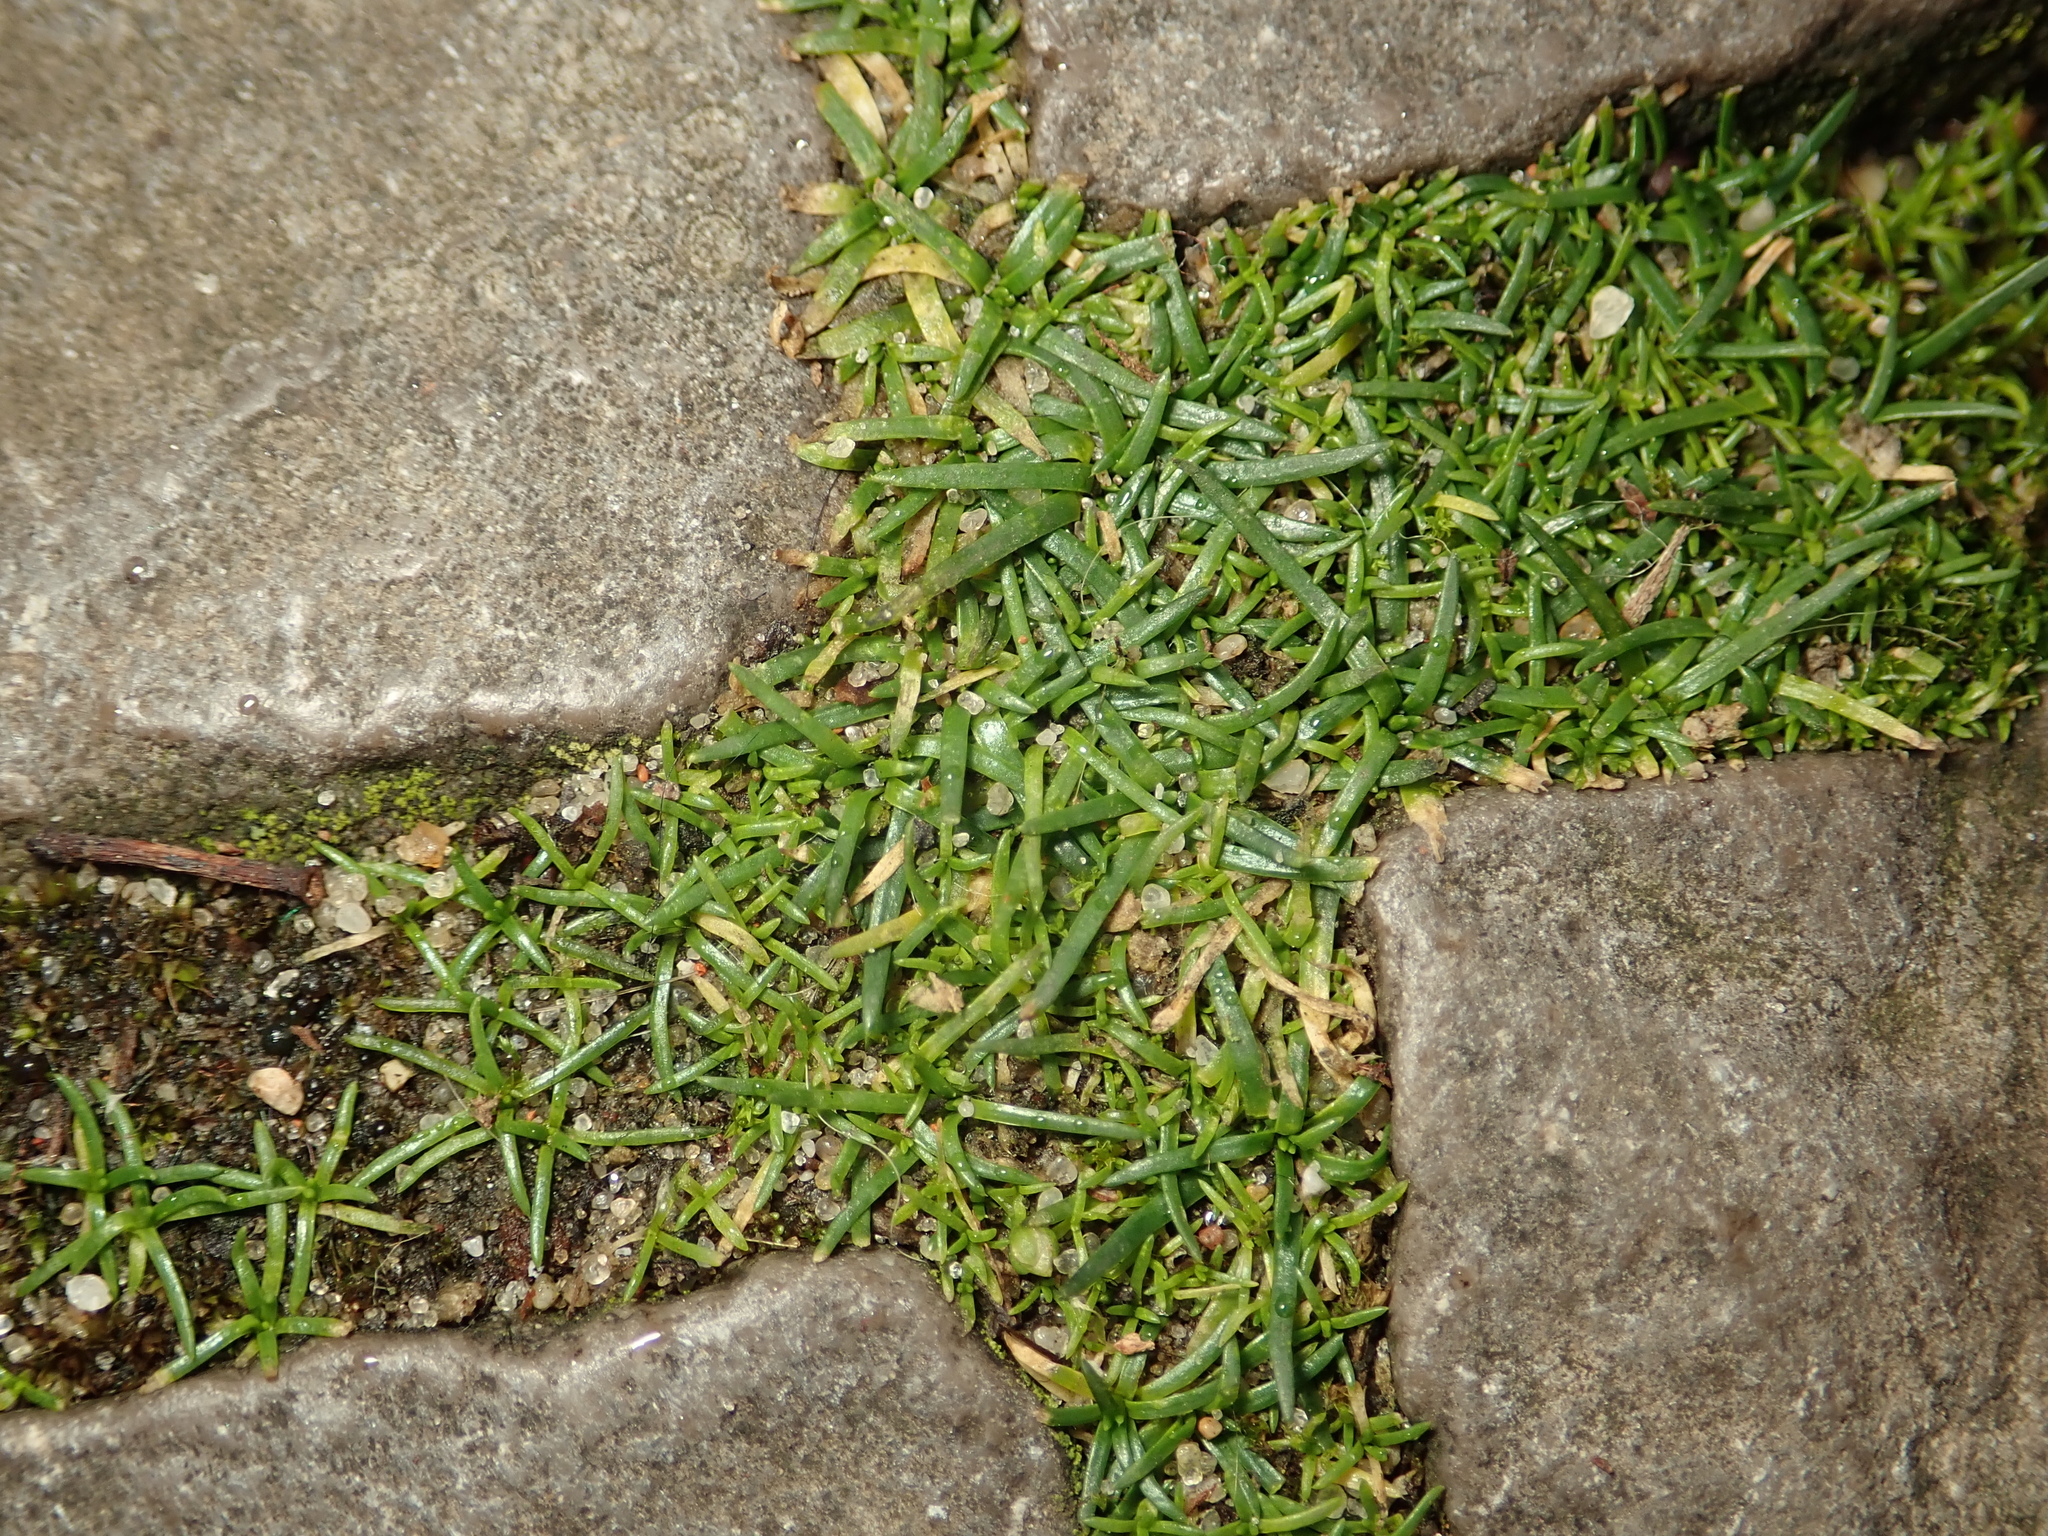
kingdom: Plantae
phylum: Tracheophyta
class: Magnoliopsida
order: Caryophyllales
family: Caryophyllaceae
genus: Sagina
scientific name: Sagina procumbens
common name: Procumbent pearlwort
